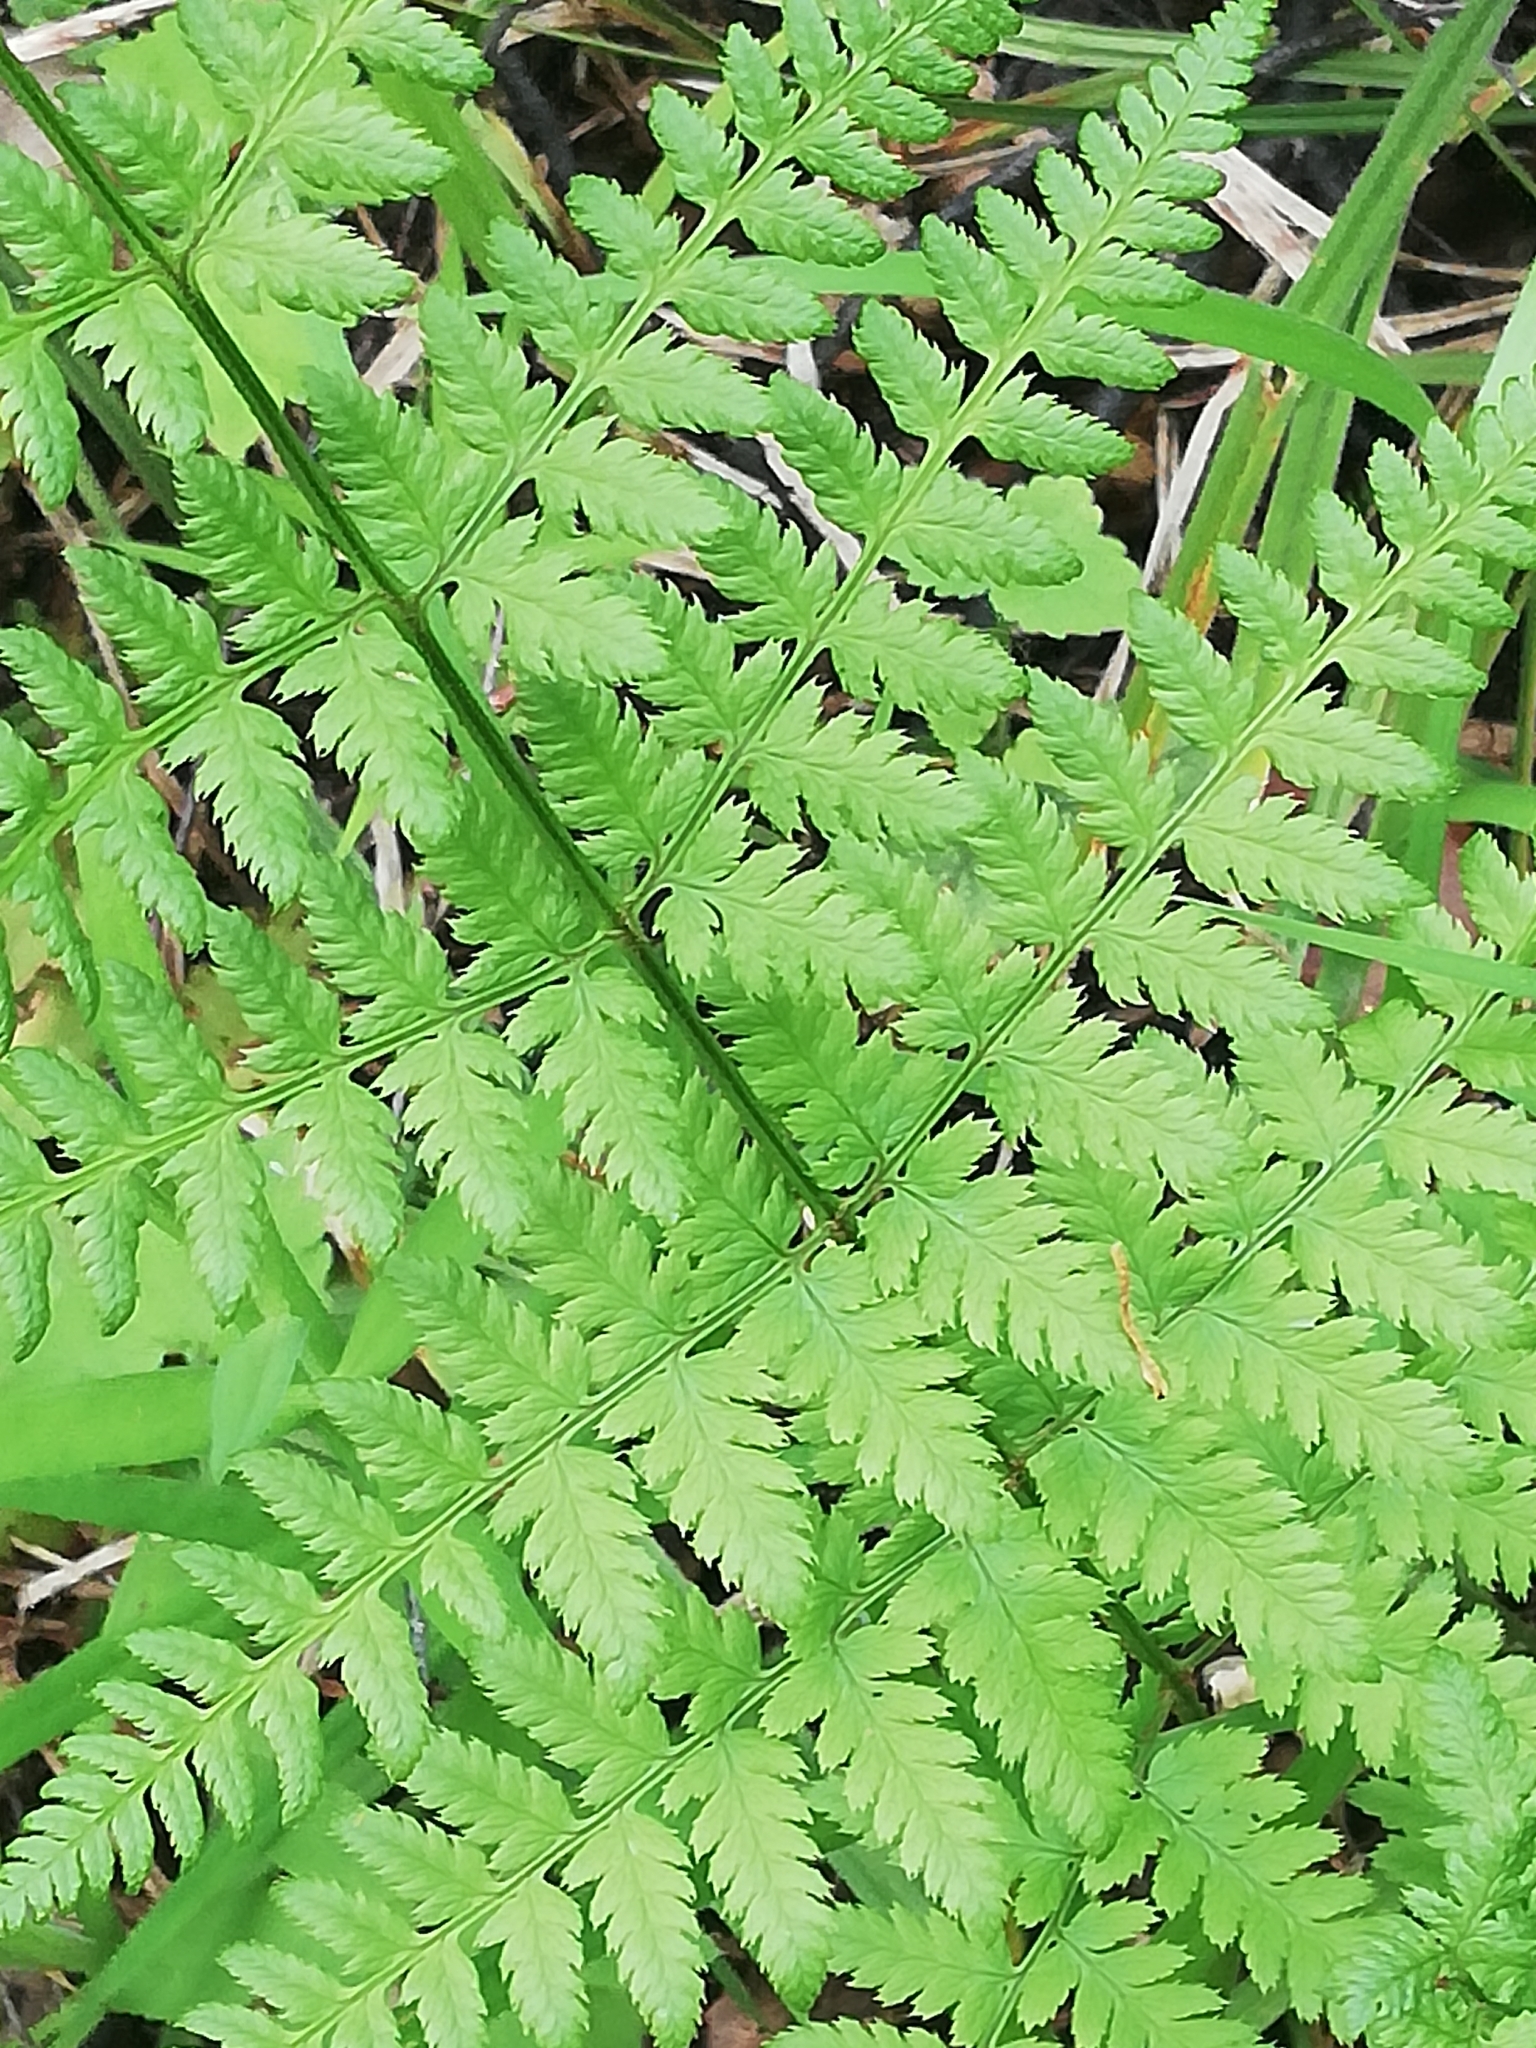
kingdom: Plantae
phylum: Tracheophyta
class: Polypodiopsida
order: Polypodiales
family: Dryopteridaceae
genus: Dryopteris
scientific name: Dryopteris carthusiana
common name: Narrow buckler-fern
